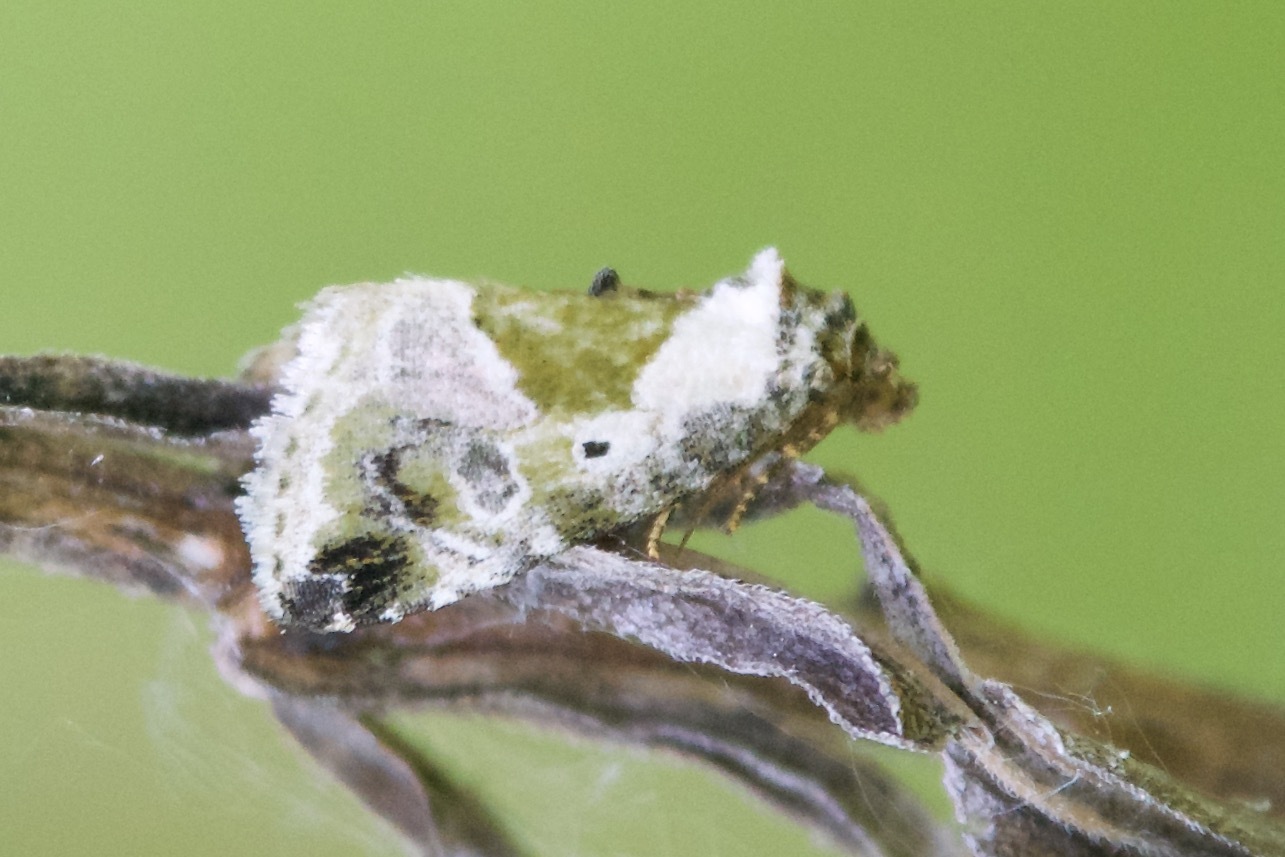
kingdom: Animalia
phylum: Arthropoda
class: Insecta
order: Lepidoptera
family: Noctuidae
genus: Maliattha
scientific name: Maliattha synochitis
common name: Black-dotted glyph
